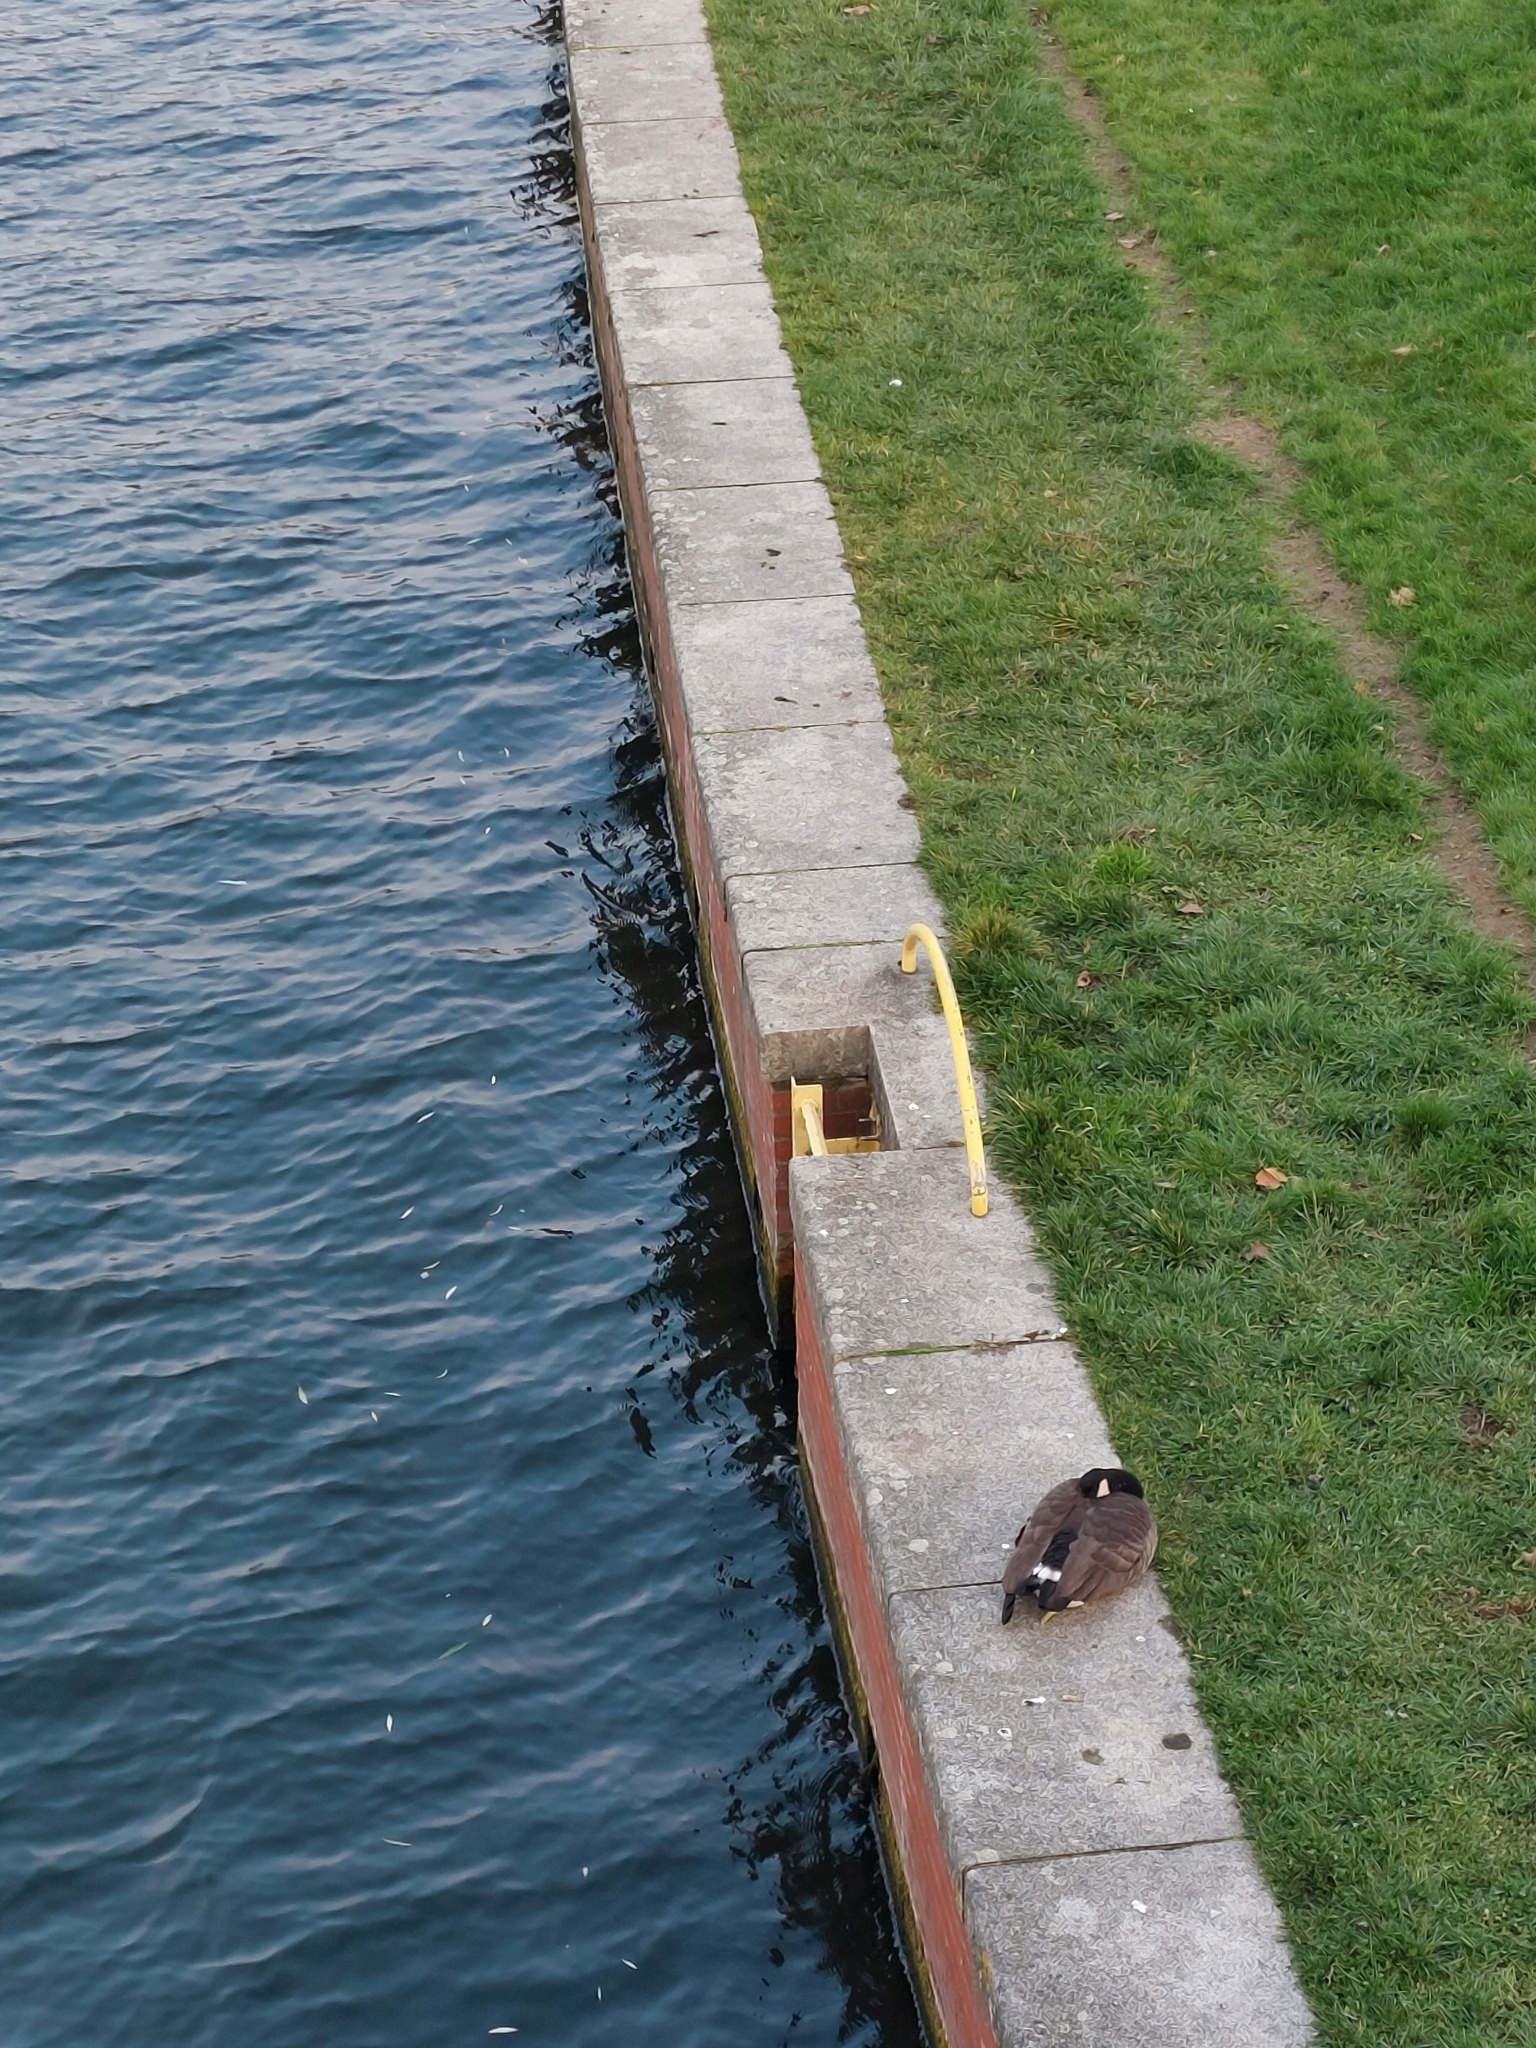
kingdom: Animalia
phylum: Chordata
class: Aves
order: Anseriformes
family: Anatidae
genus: Branta
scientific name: Branta canadensis
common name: Canada goose
